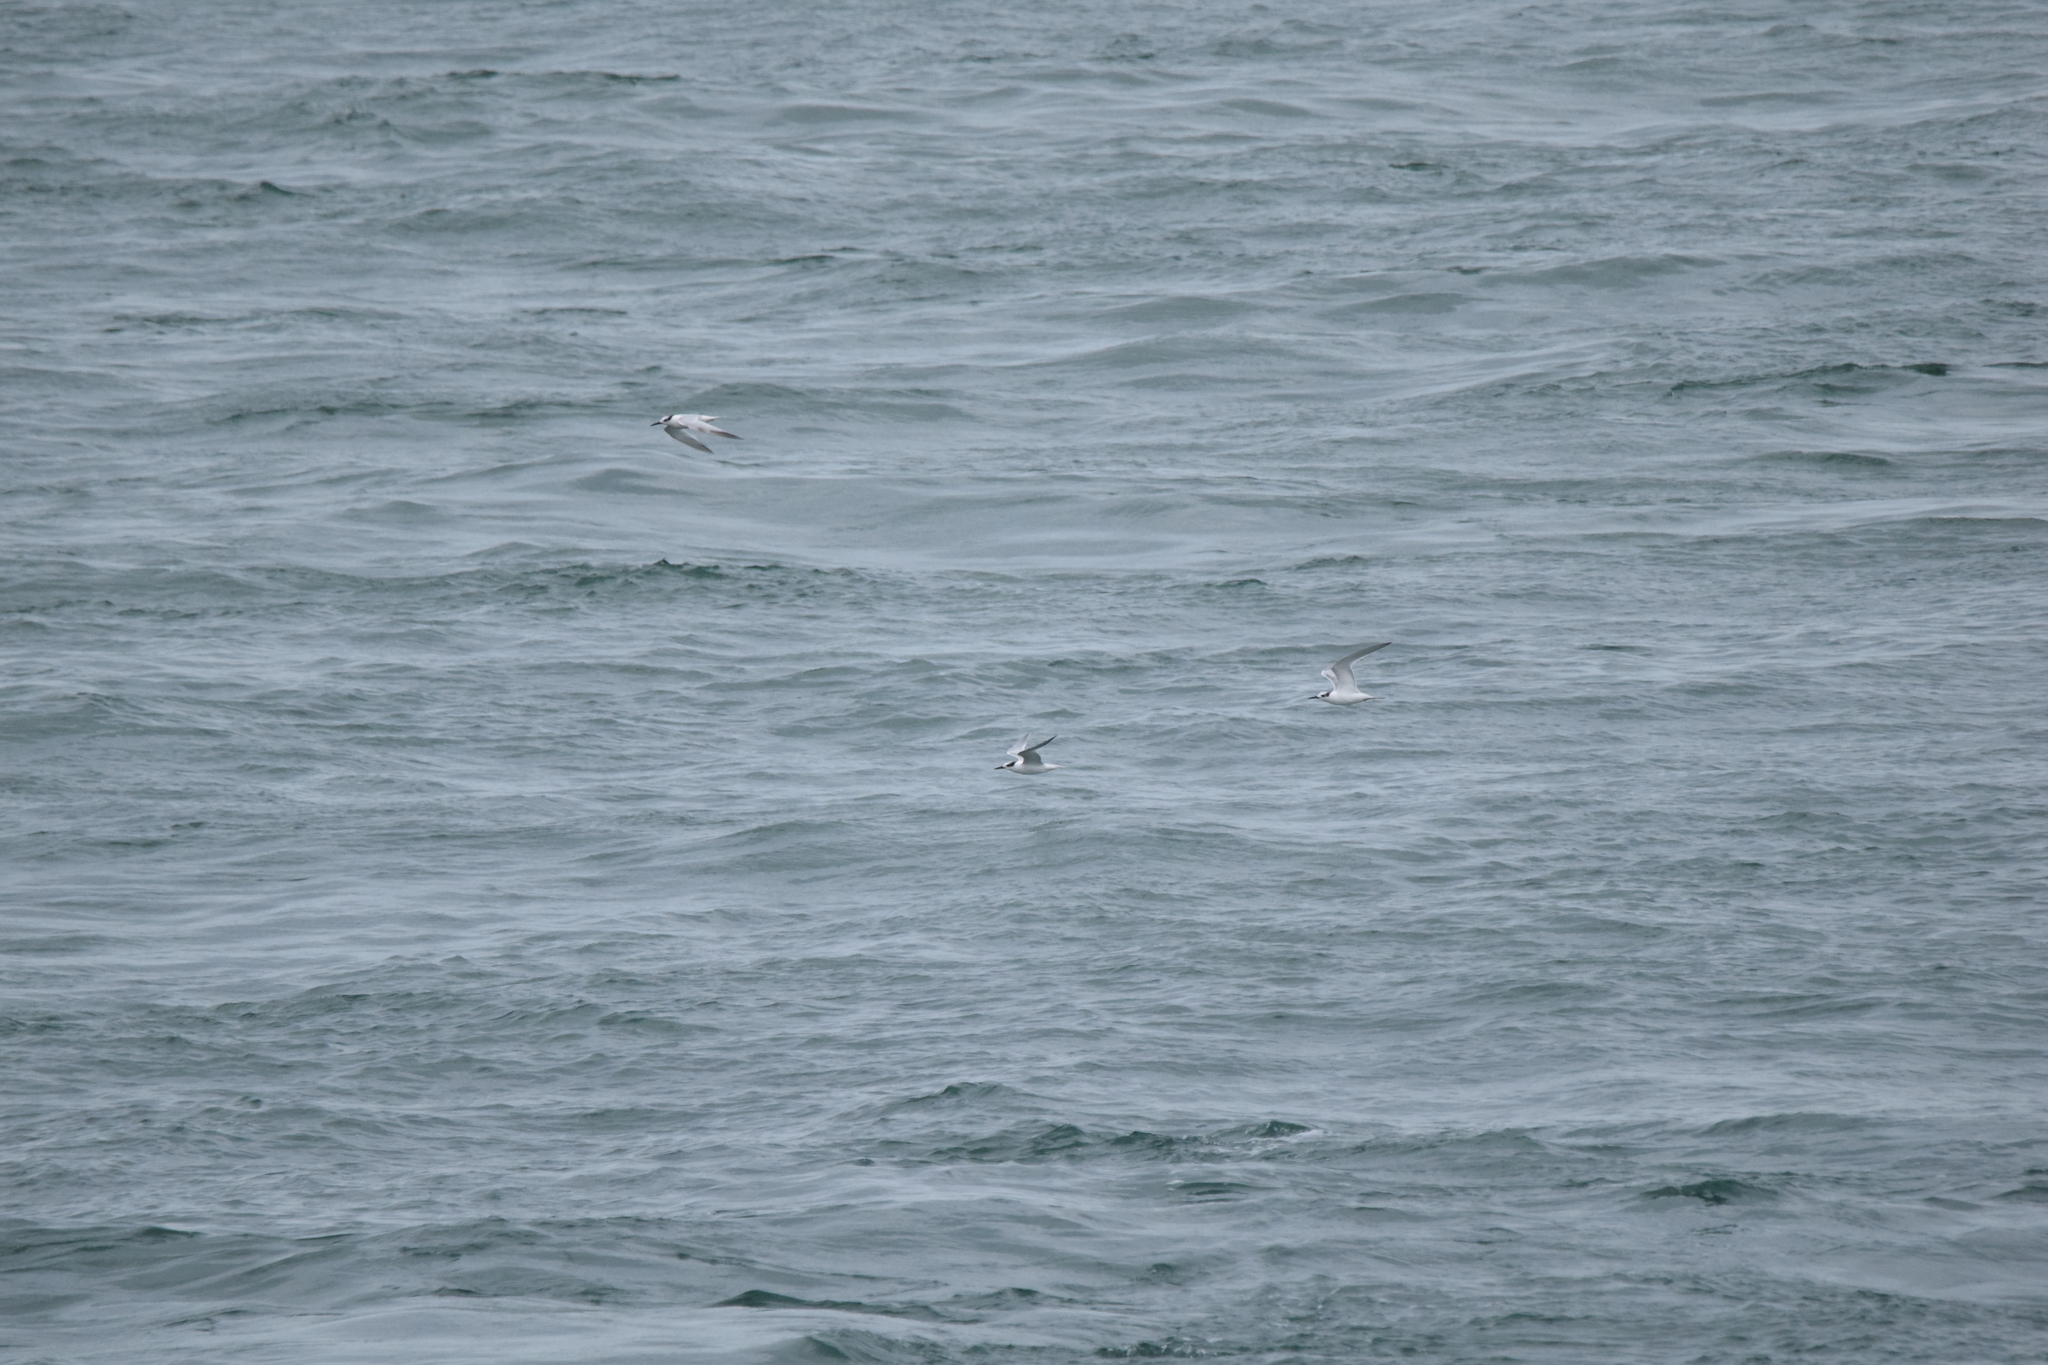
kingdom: Animalia
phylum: Chordata
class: Aves
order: Charadriiformes
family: Laridae
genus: Thalasseus
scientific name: Thalasseus sandvicensis
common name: Sandwich tern
